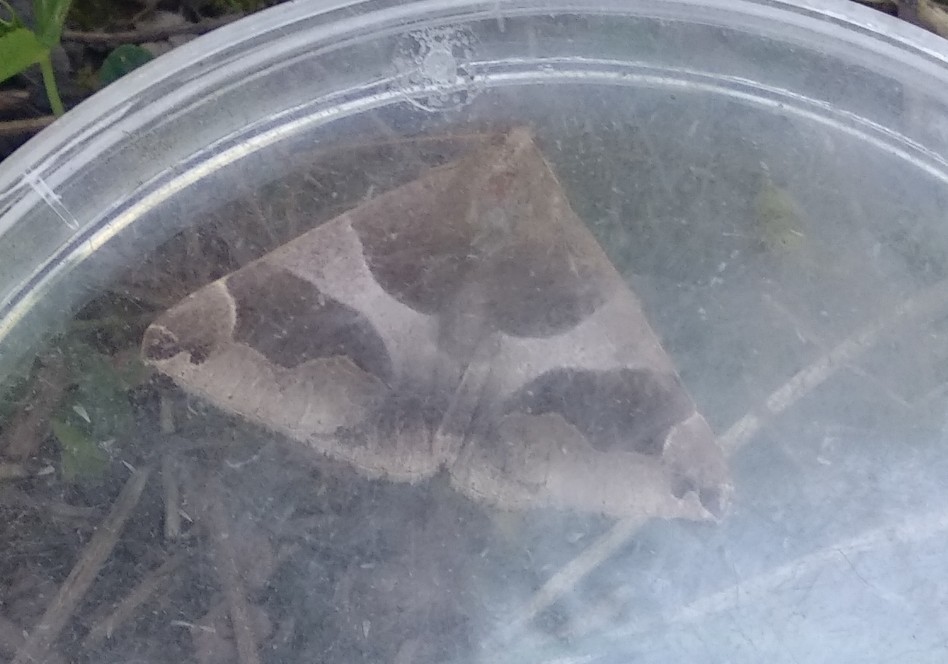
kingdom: Animalia
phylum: Arthropoda
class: Insecta
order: Lepidoptera
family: Erebidae
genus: Dysgonia
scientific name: Dysgonia algira
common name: Passenger
